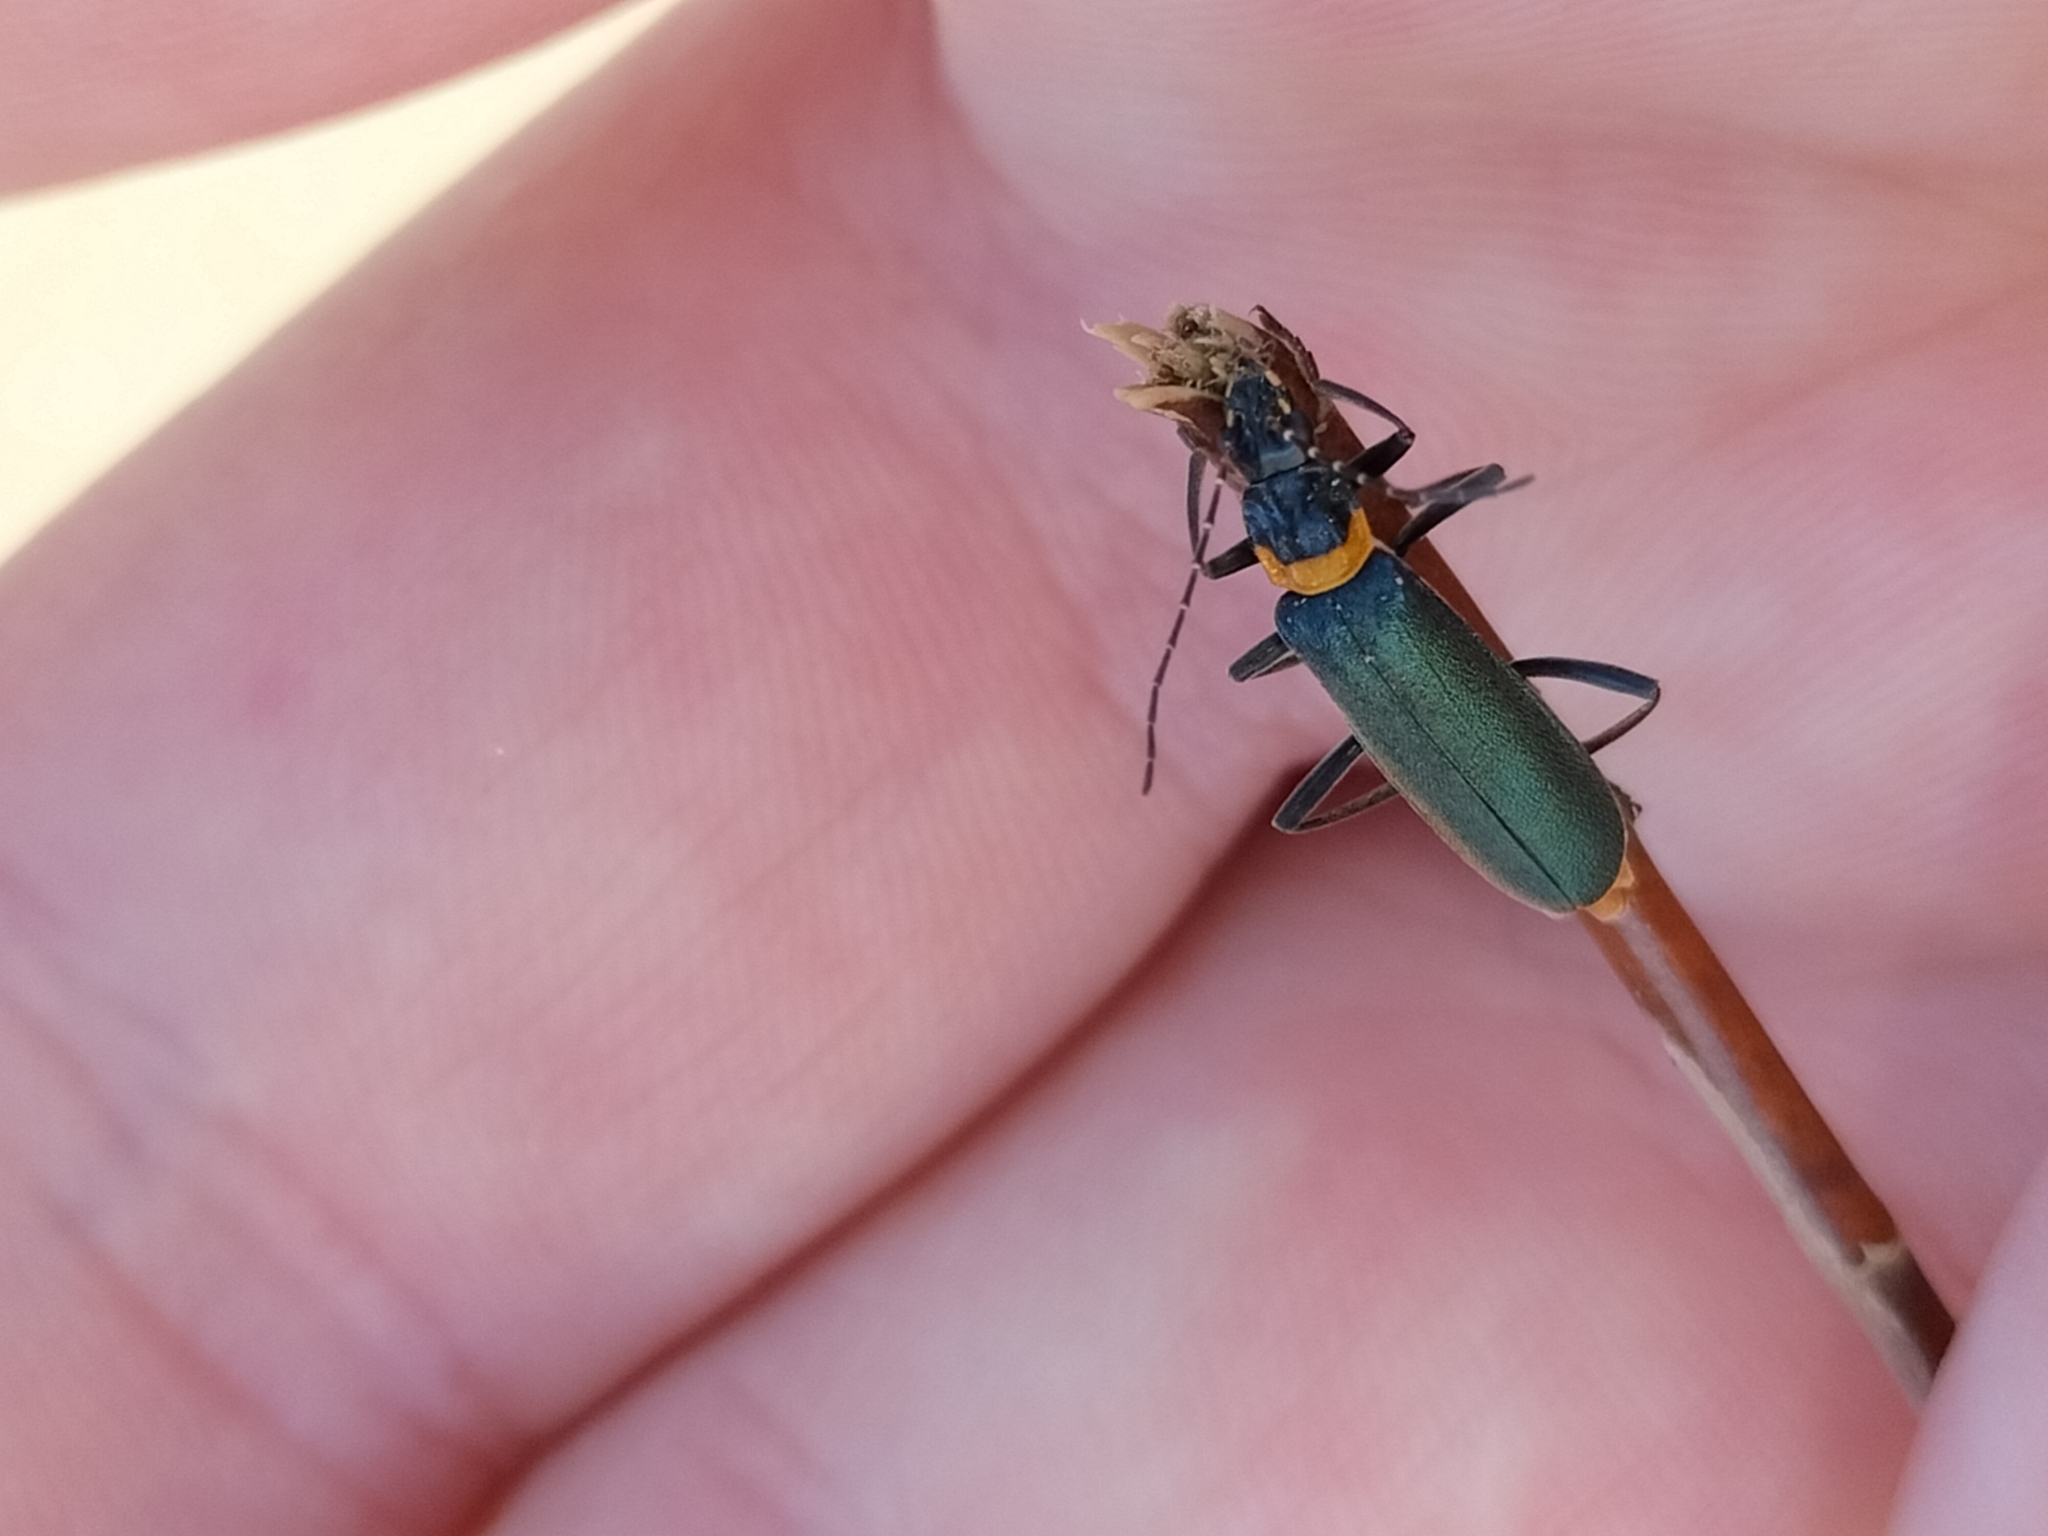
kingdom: Animalia
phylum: Arthropoda
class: Insecta
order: Coleoptera
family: Cantharidae
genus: Chauliognathus
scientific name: Chauliognathus
